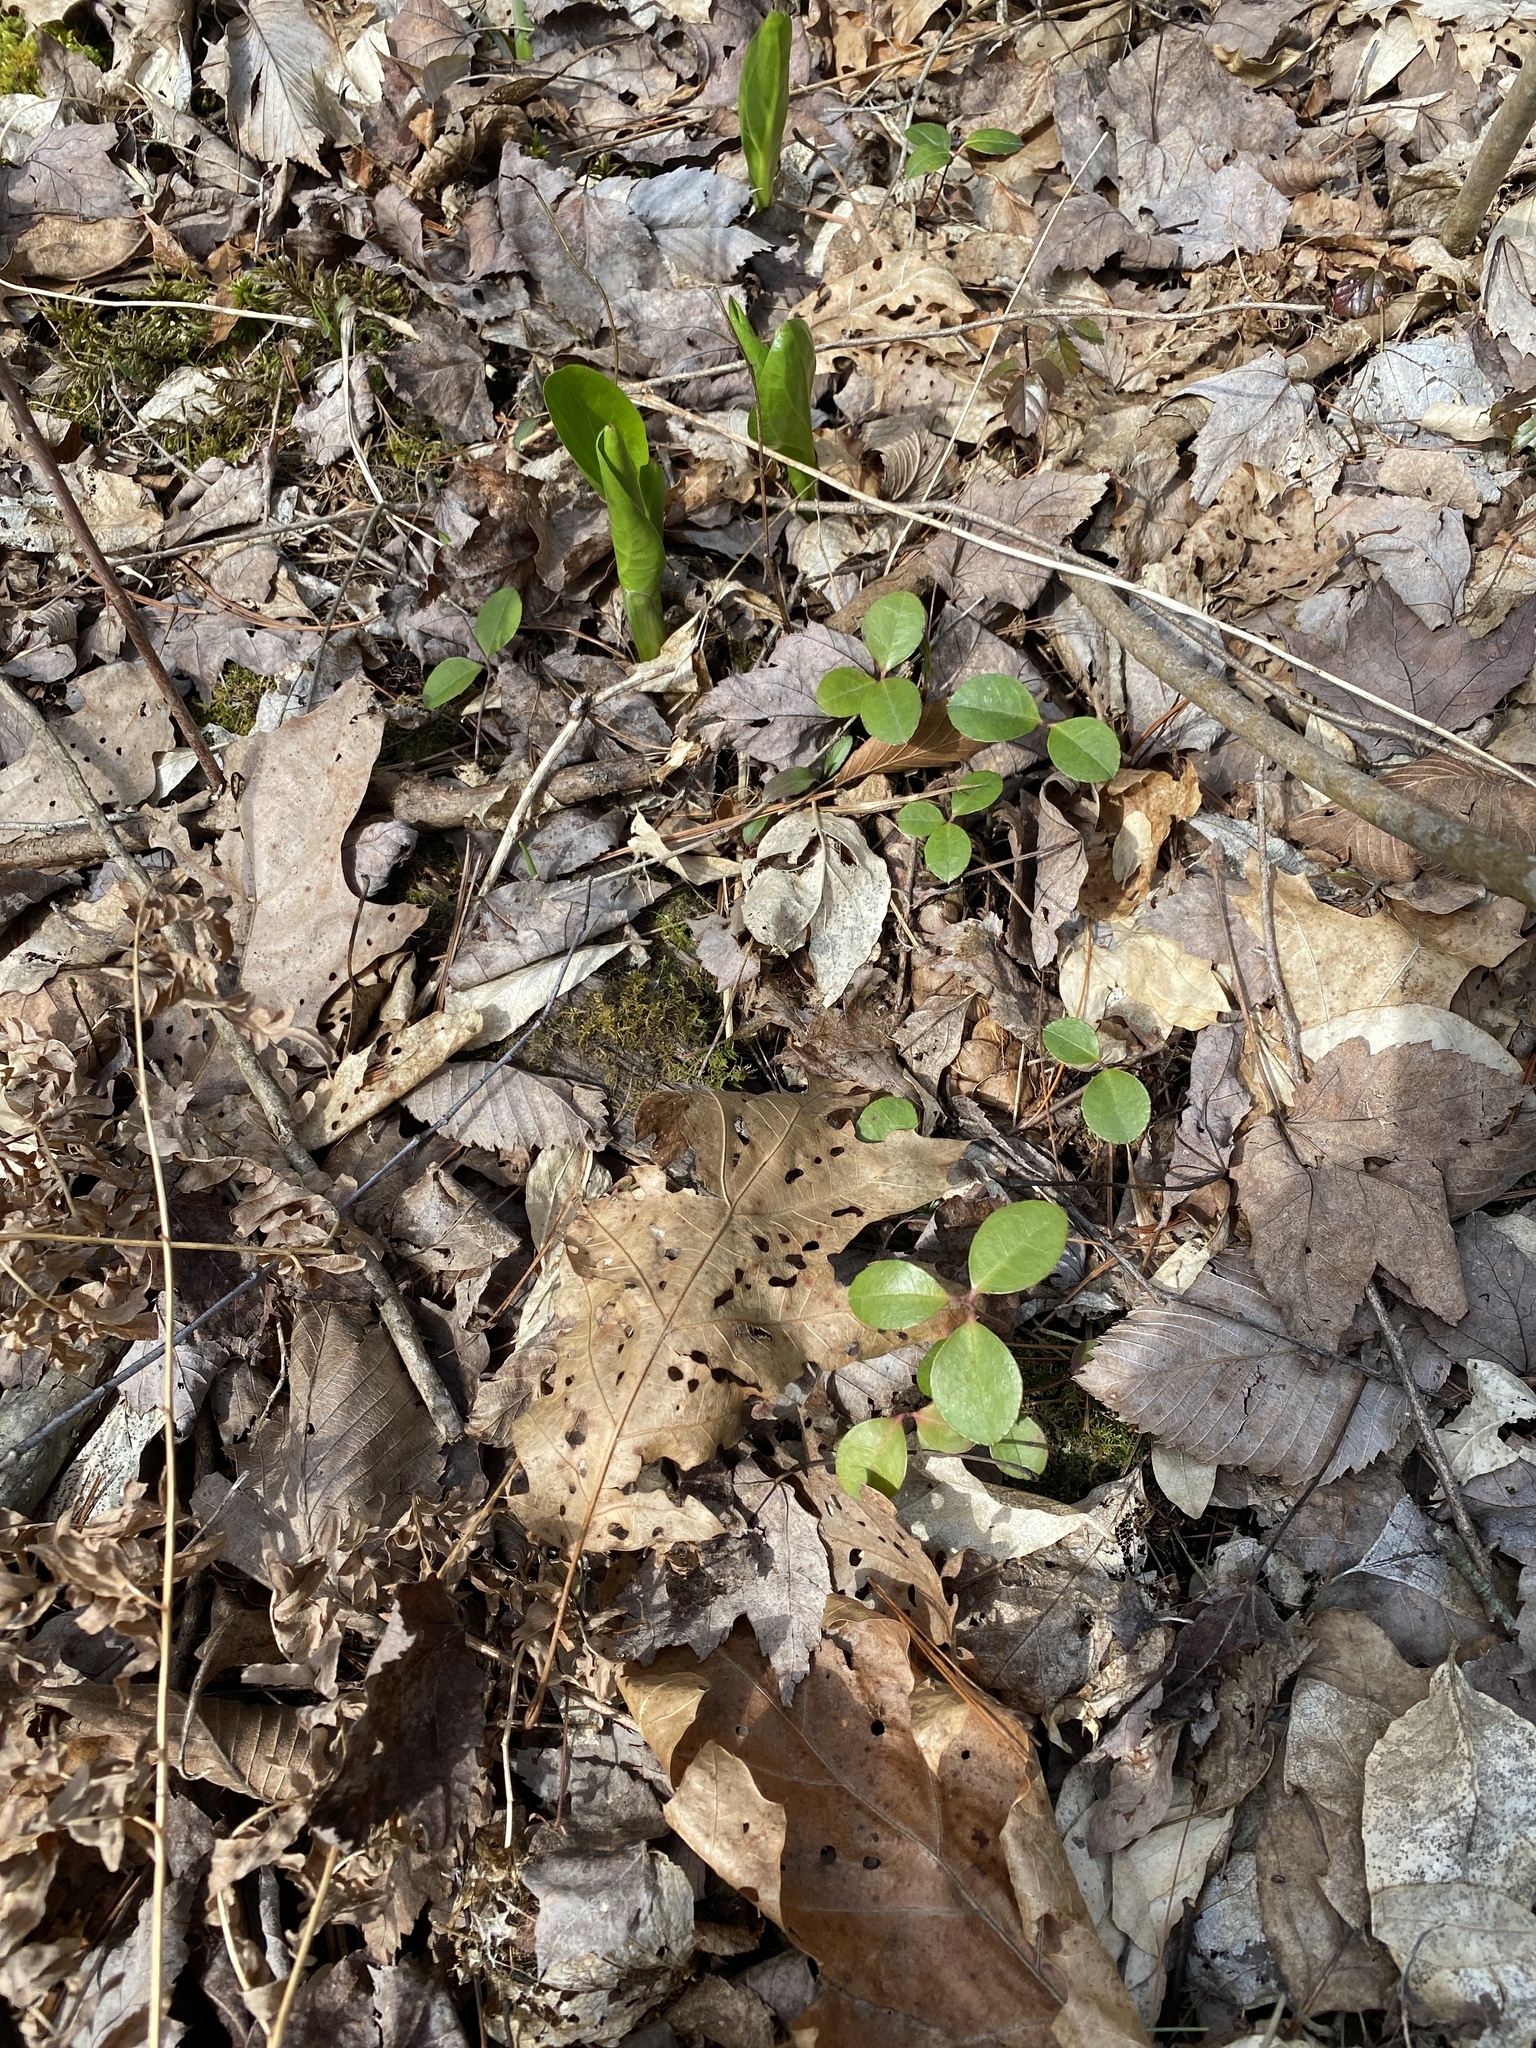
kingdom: Plantae
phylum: Tracheophyta
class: Magnoliopsida
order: Ericales
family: Ericaceae
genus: Gaultheria
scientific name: Gaultheria procumbens
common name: Checkerberry
